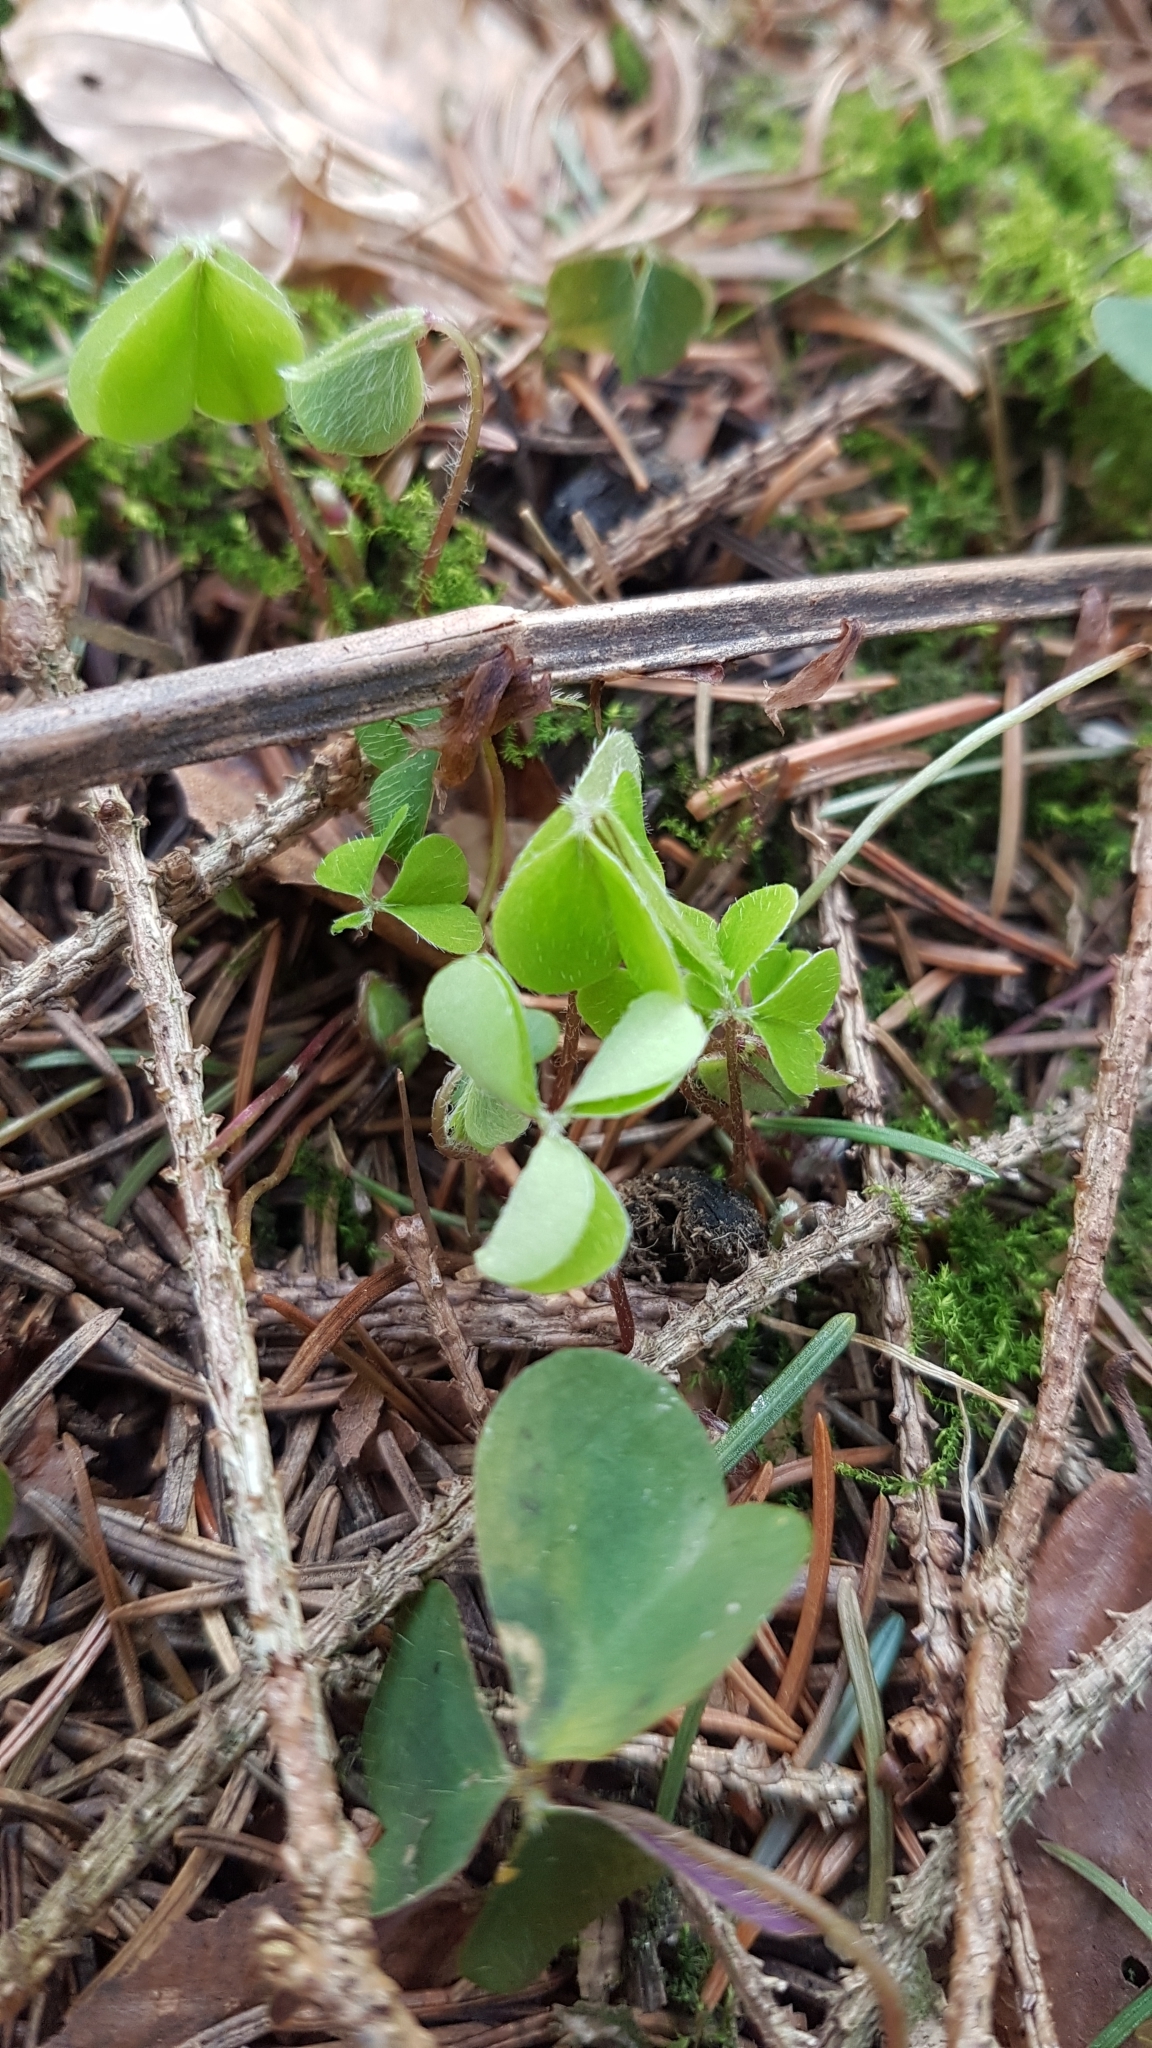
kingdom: Plantae
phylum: Tracheophyta
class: Magnoliopsida
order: Oxalidales
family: Oxalidaceae
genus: Oxalis
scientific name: Oxalis acetosella
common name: Wood-sorrel
